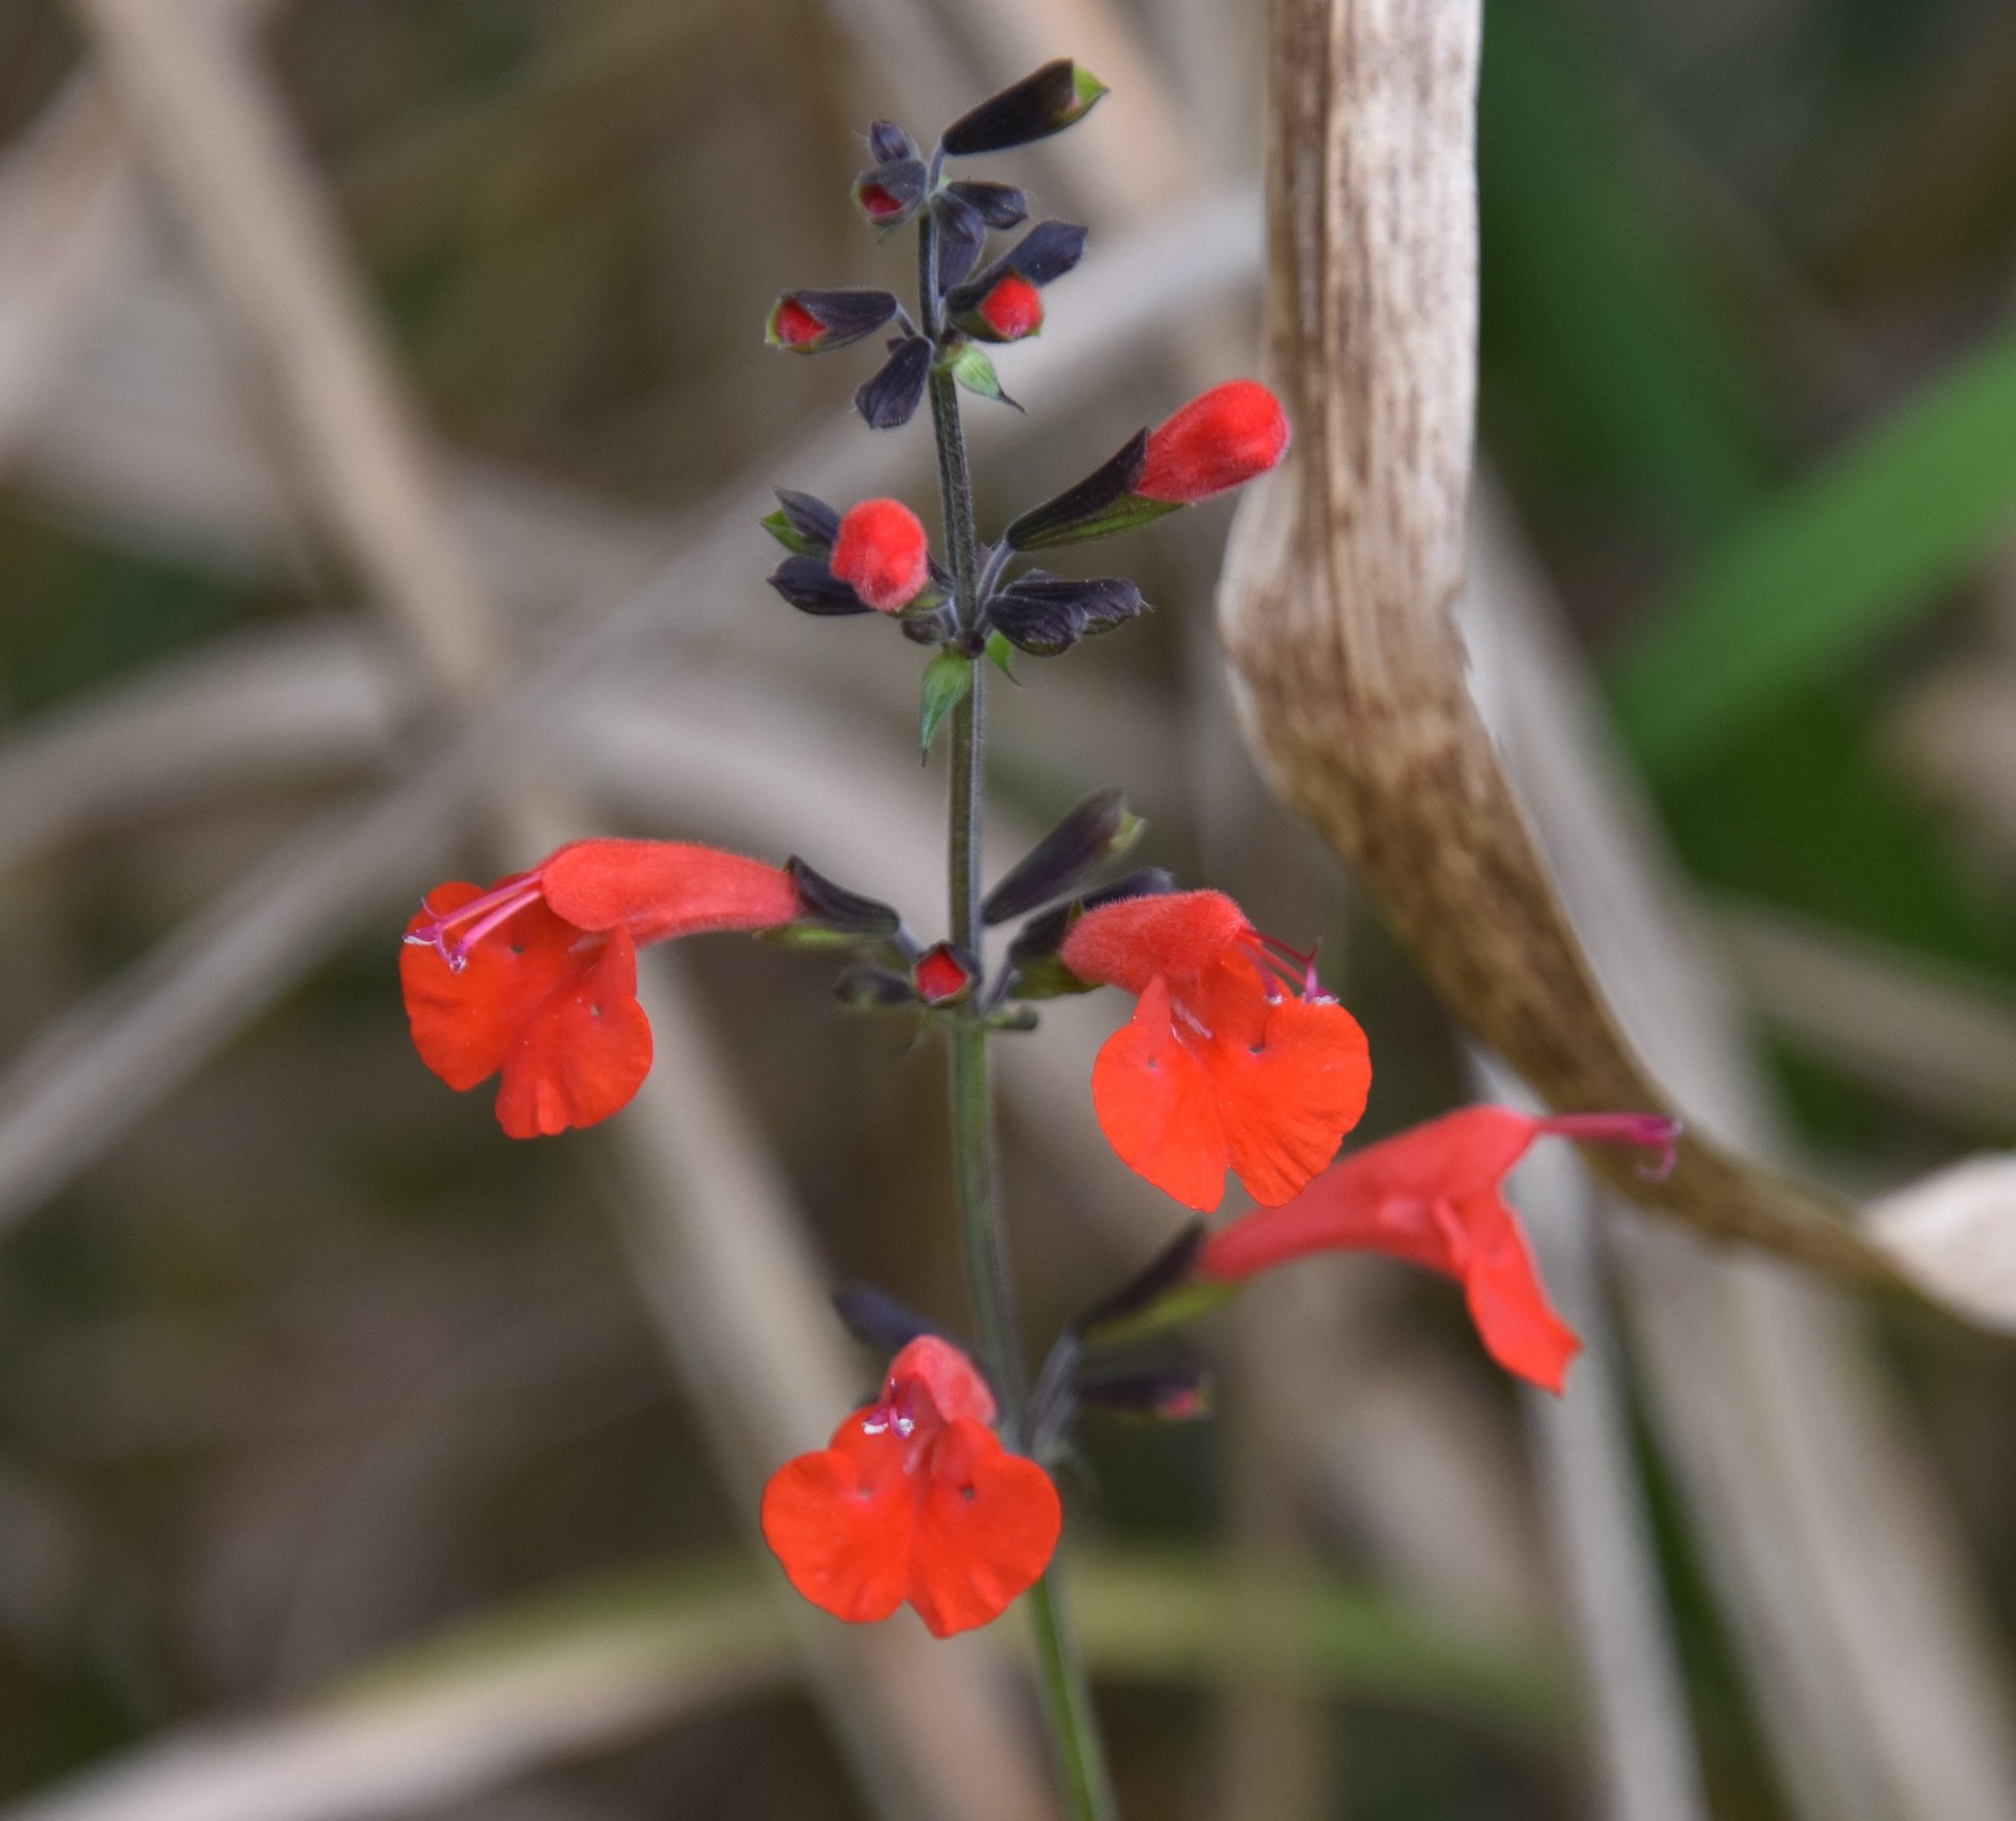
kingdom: Plantae
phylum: Tracheophyta
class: Magnoliopsida
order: Lamiales
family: Lamiaceae
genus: Salvia
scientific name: Salvia coccinea
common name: Blood sage
